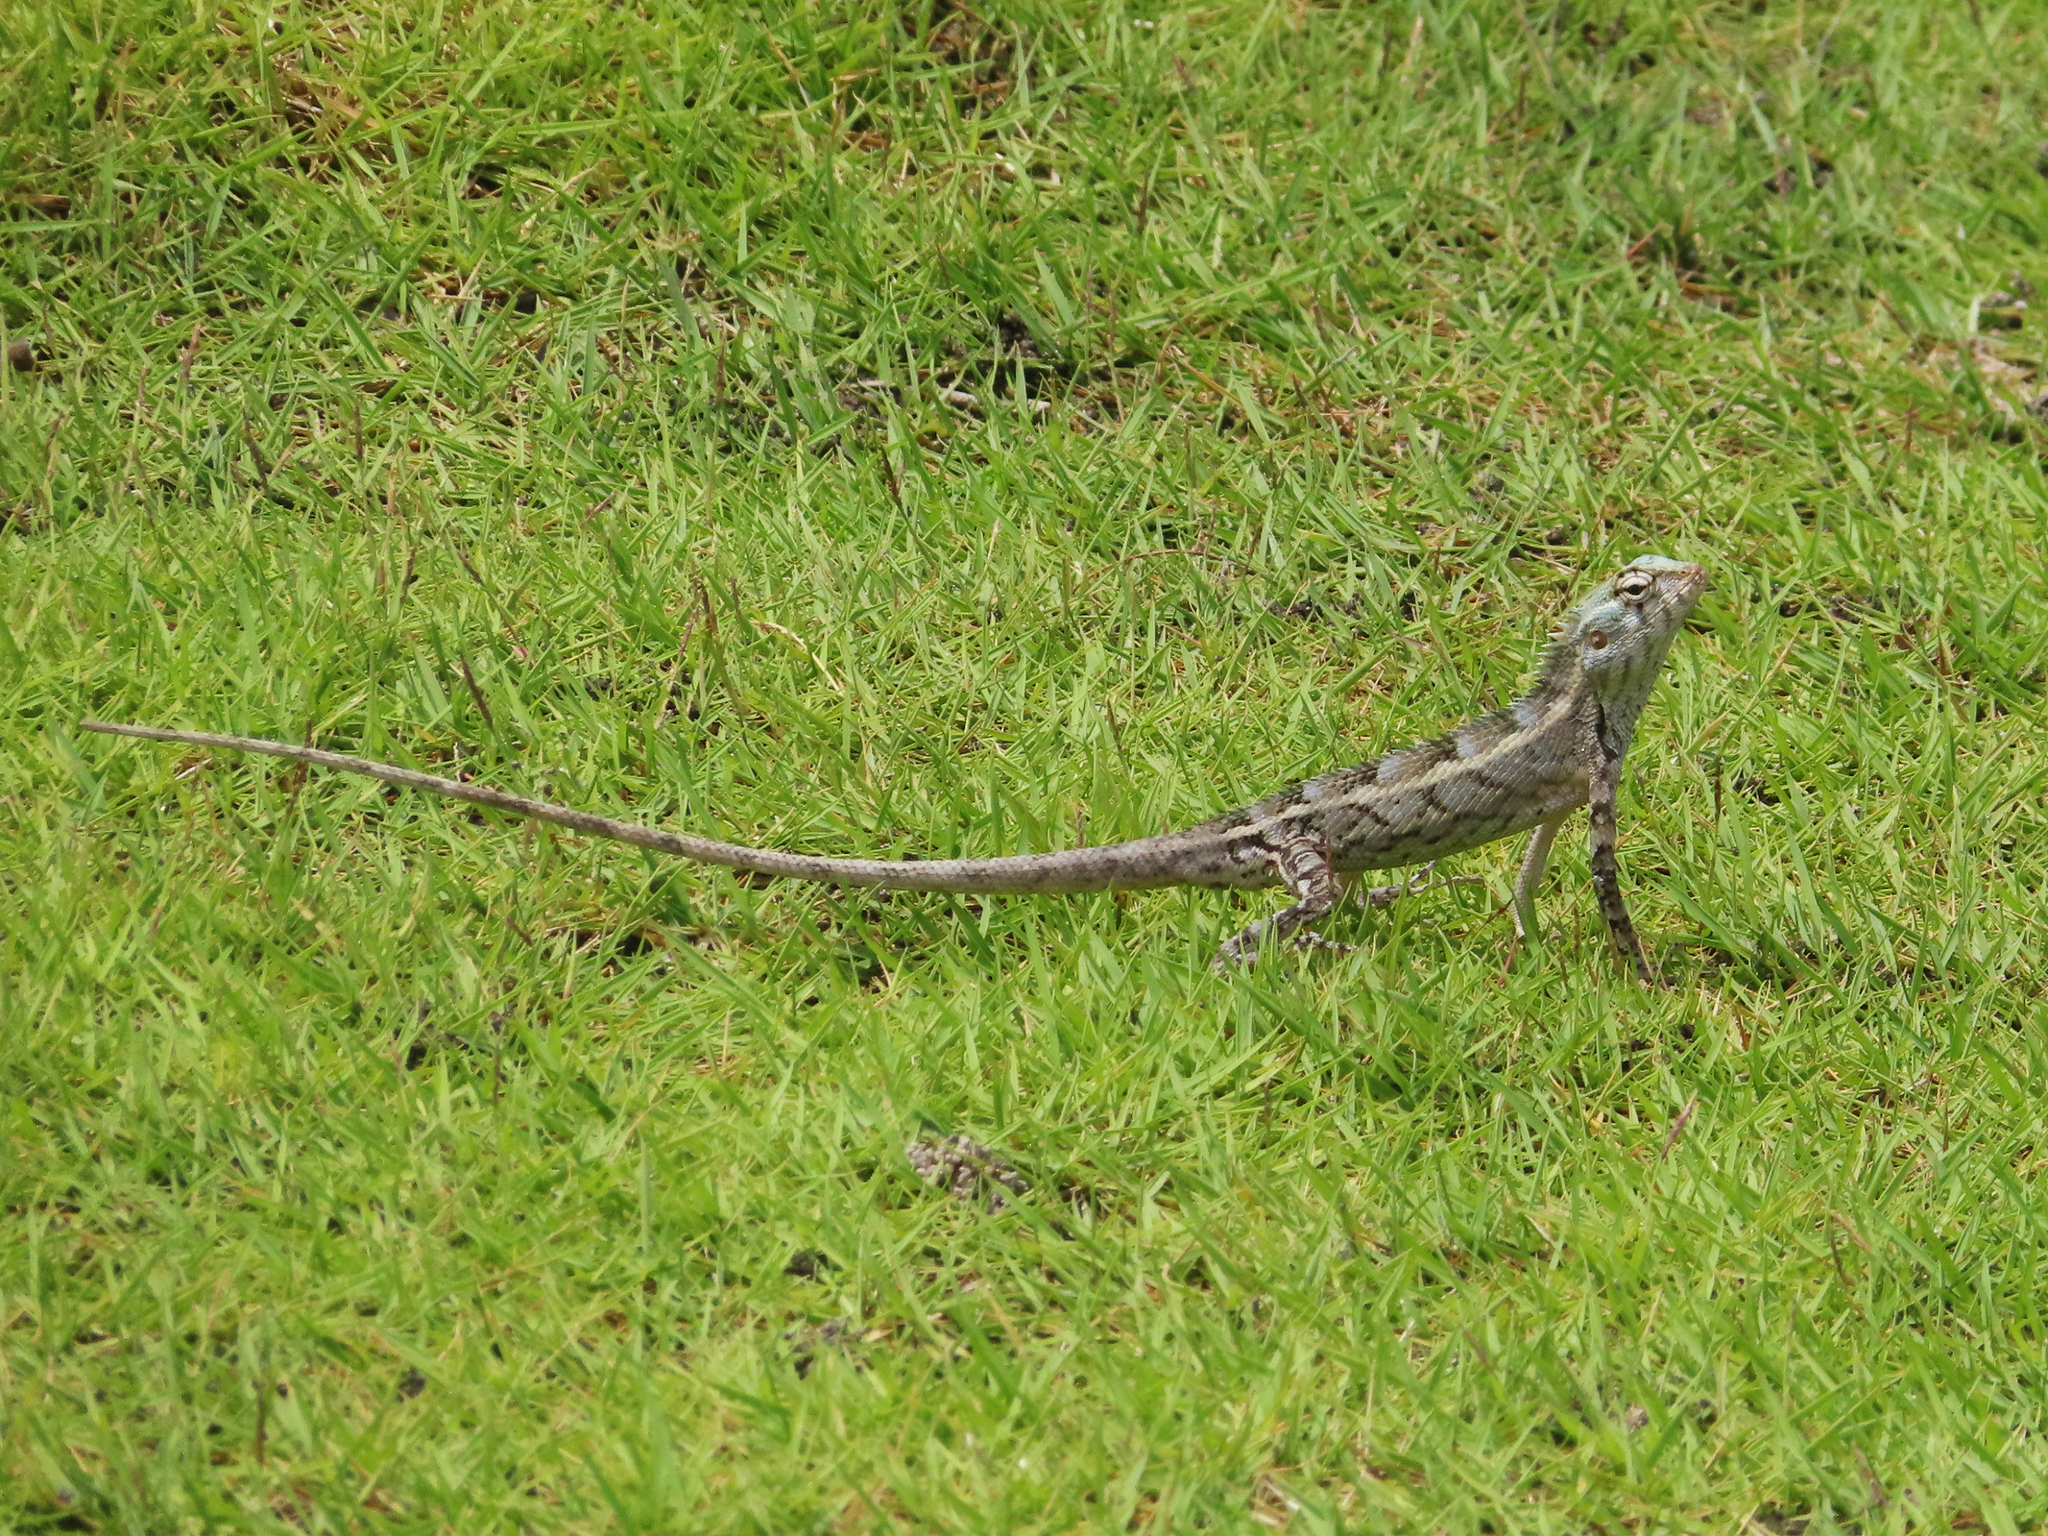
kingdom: Animalia
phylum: Chordata
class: Squamata
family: Agamidae
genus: Calotes
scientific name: Calotes versicolor
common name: Oriental garden lizard
